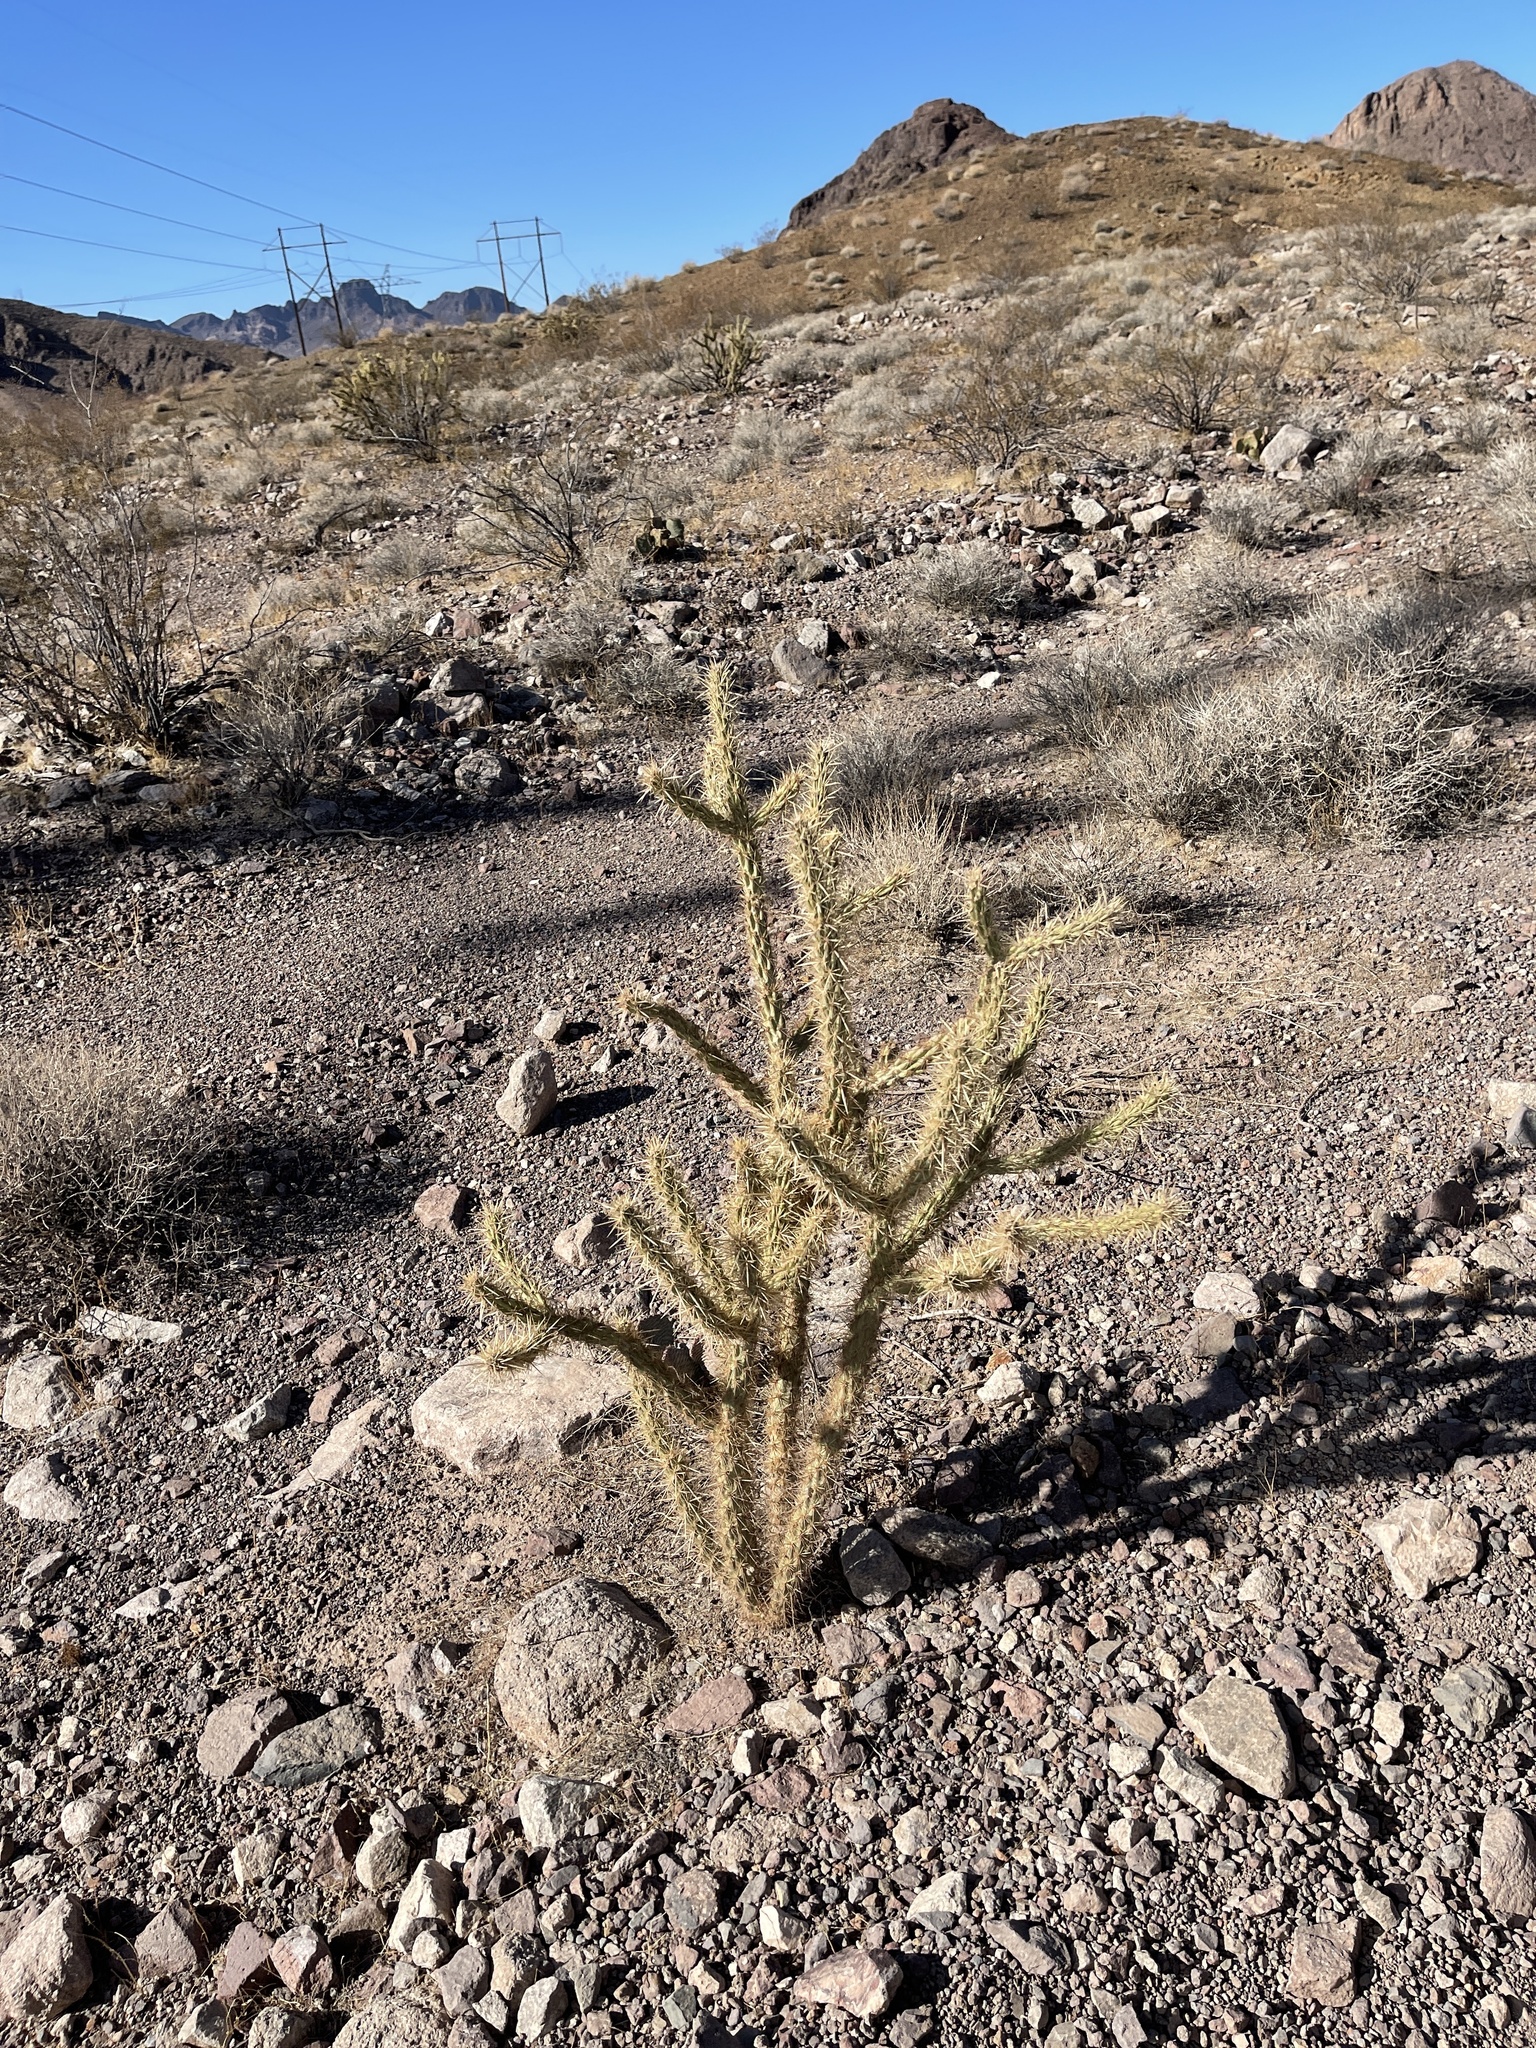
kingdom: Plantae
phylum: Tracheophyta
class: Magnoliopsida
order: Caryophyllales
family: Cactaceae
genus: Cylindropuntia
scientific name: Cylindropuntia acanthocarpa
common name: Buckhorn cholla
